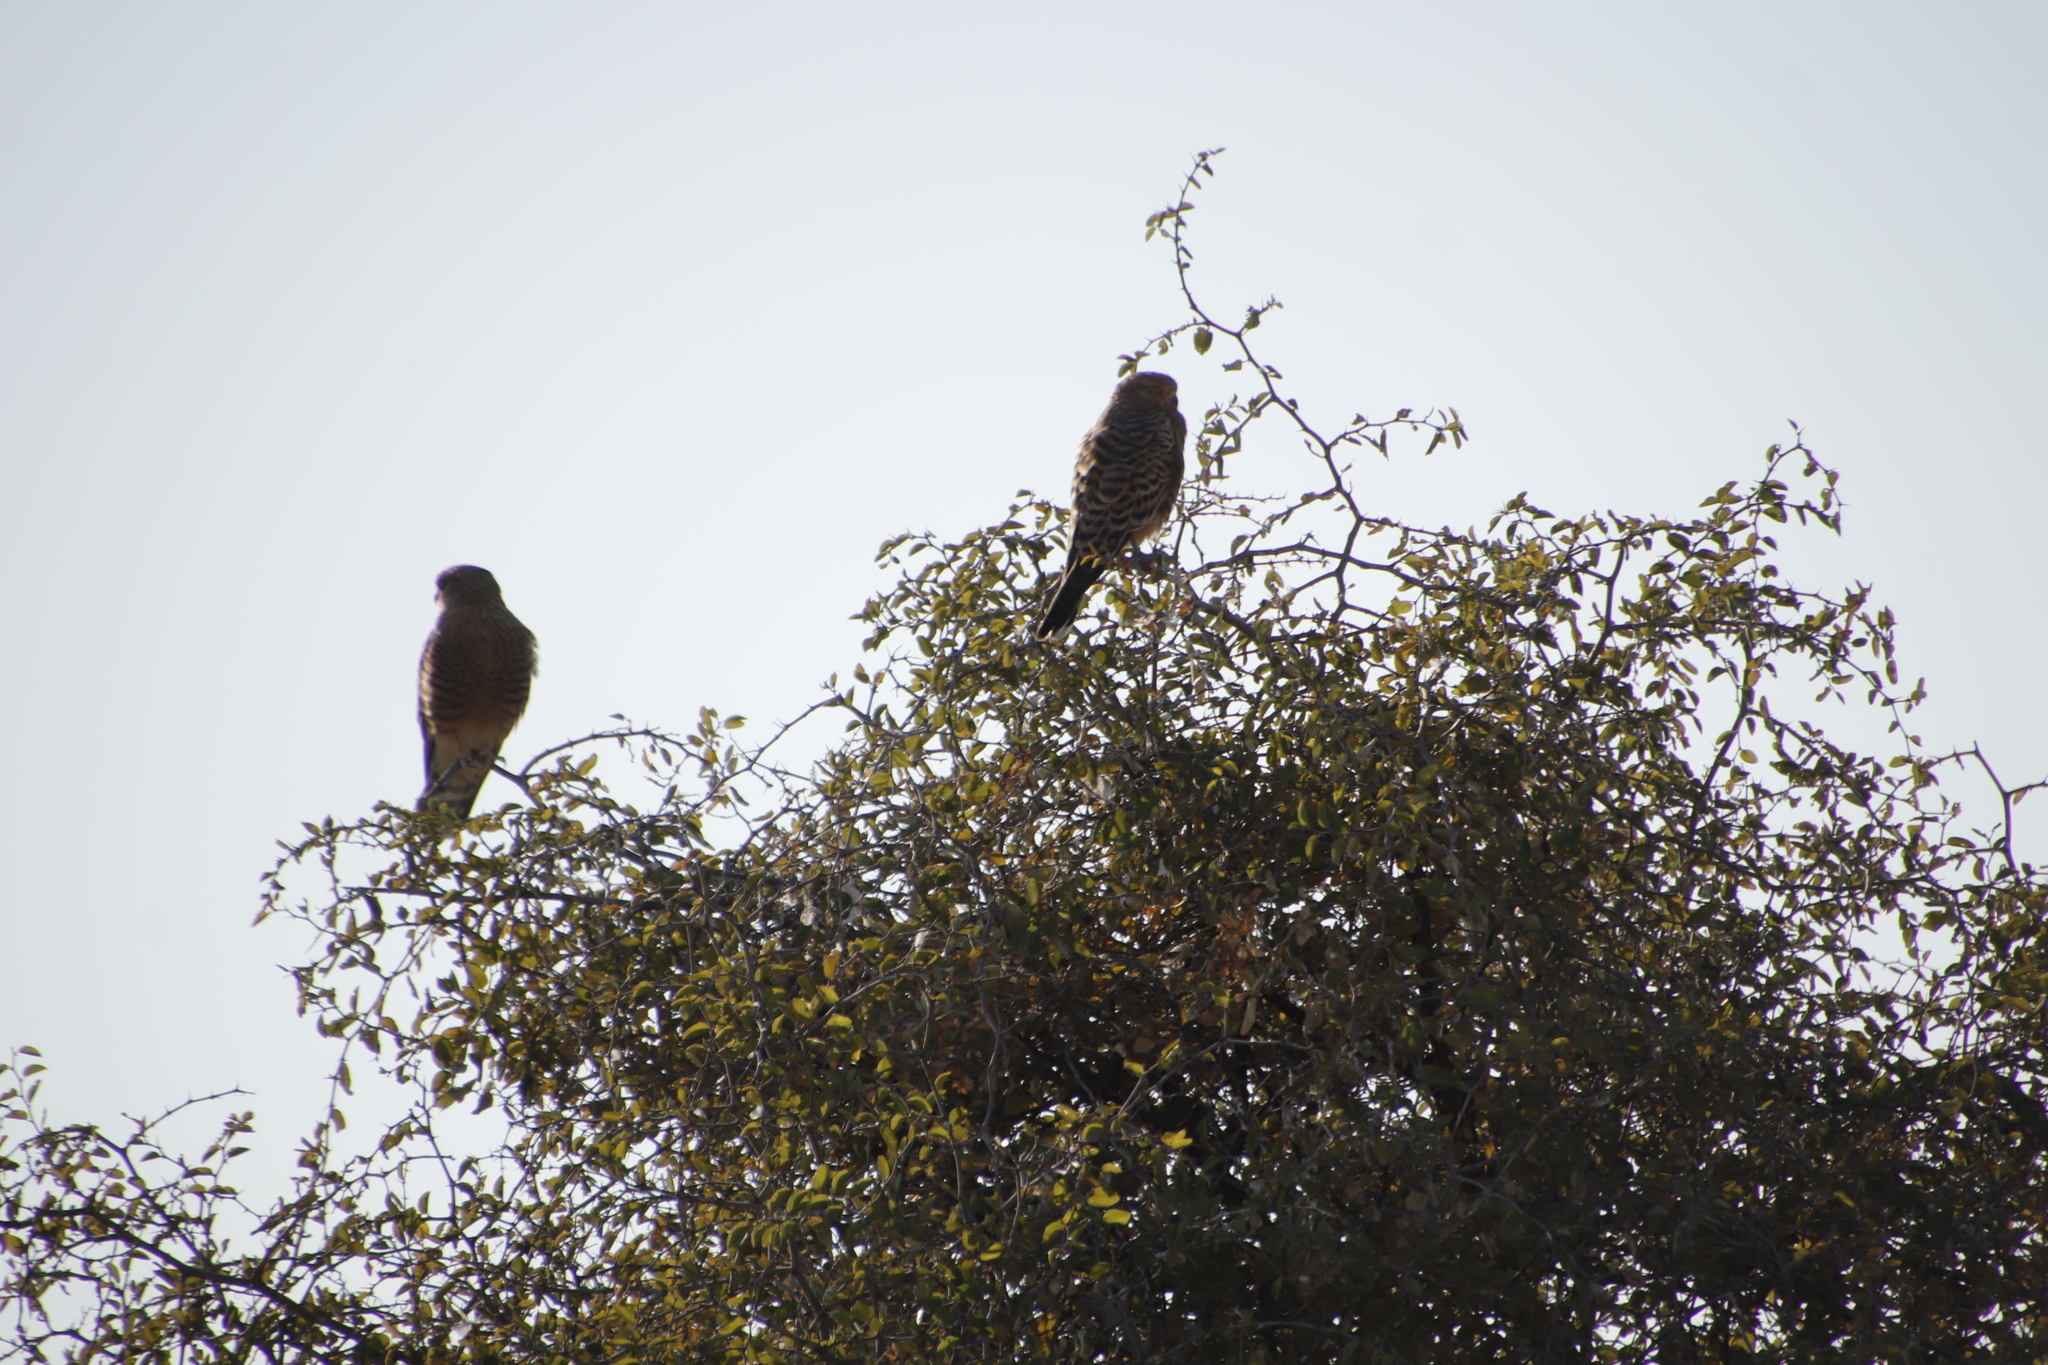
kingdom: Animalia
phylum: Chordata
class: Aves
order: Falconiformes
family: Falconidae
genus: Falco
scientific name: Falco rupicoloides
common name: Greater kestrel
